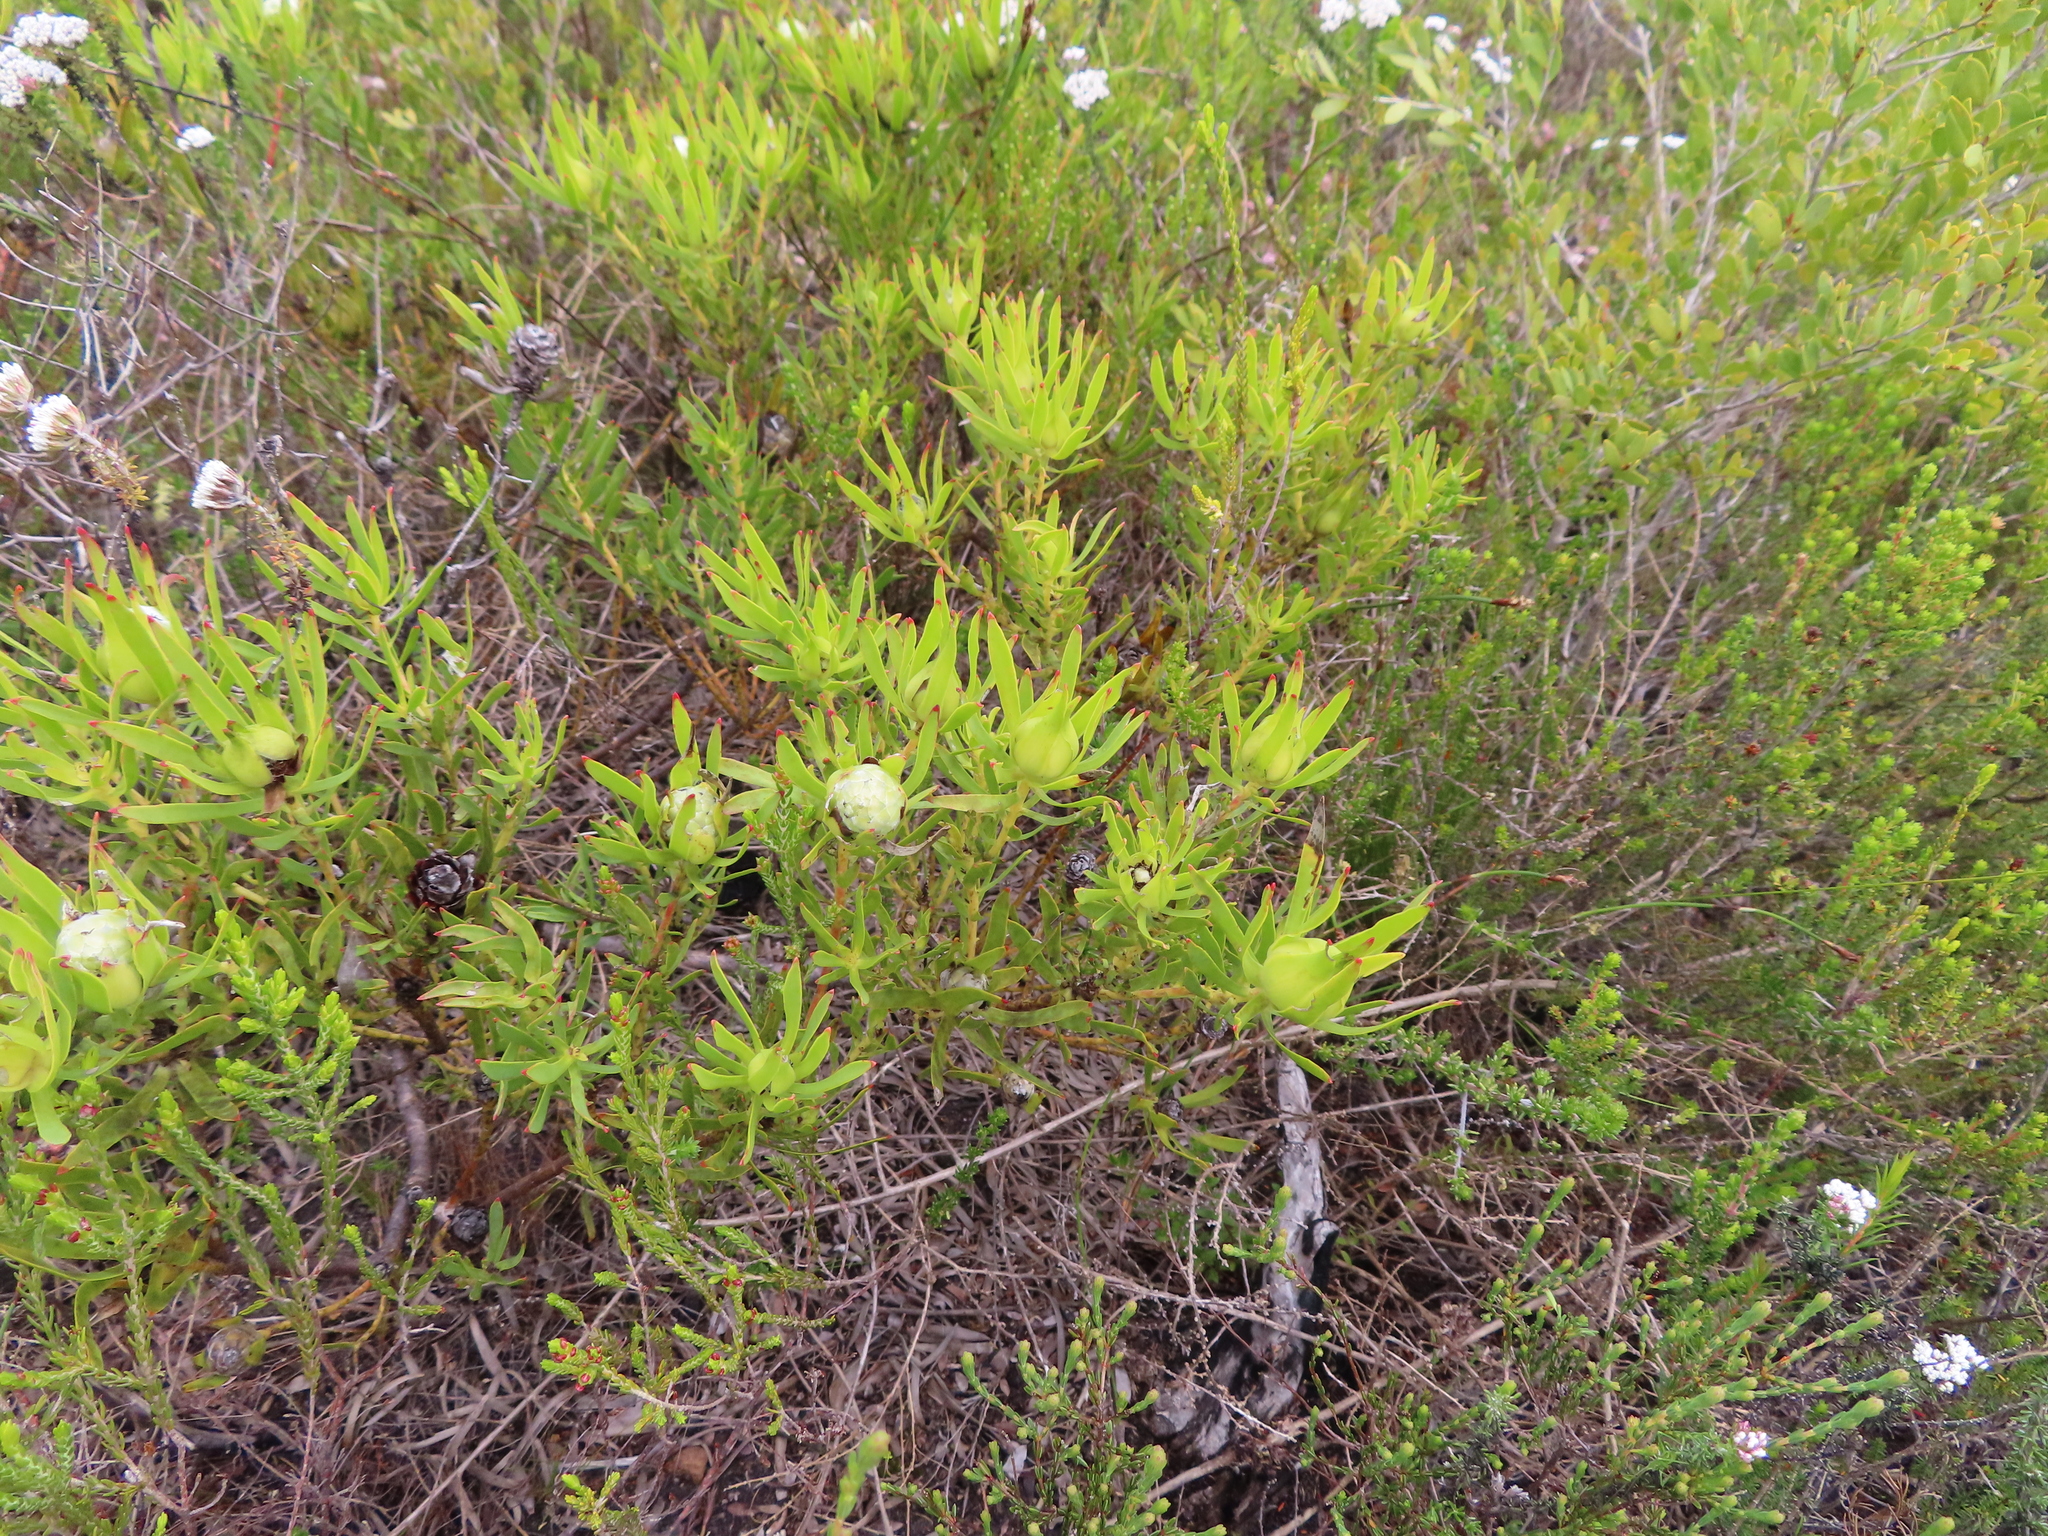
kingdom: Plantae
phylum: Tracheophyta
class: Magnoliopsida
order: Proteales
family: Proteaceae
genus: Leucadendron
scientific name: Leucadendron salignum
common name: Common sunshine conebush
